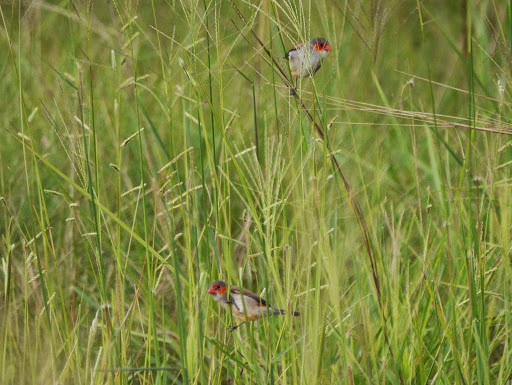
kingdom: Animalia
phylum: Chordata
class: Aves
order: Passeriformes
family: Estrildidae
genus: Estrilda
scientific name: Estrilda melpoda
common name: Orange-cheeked waxbill
